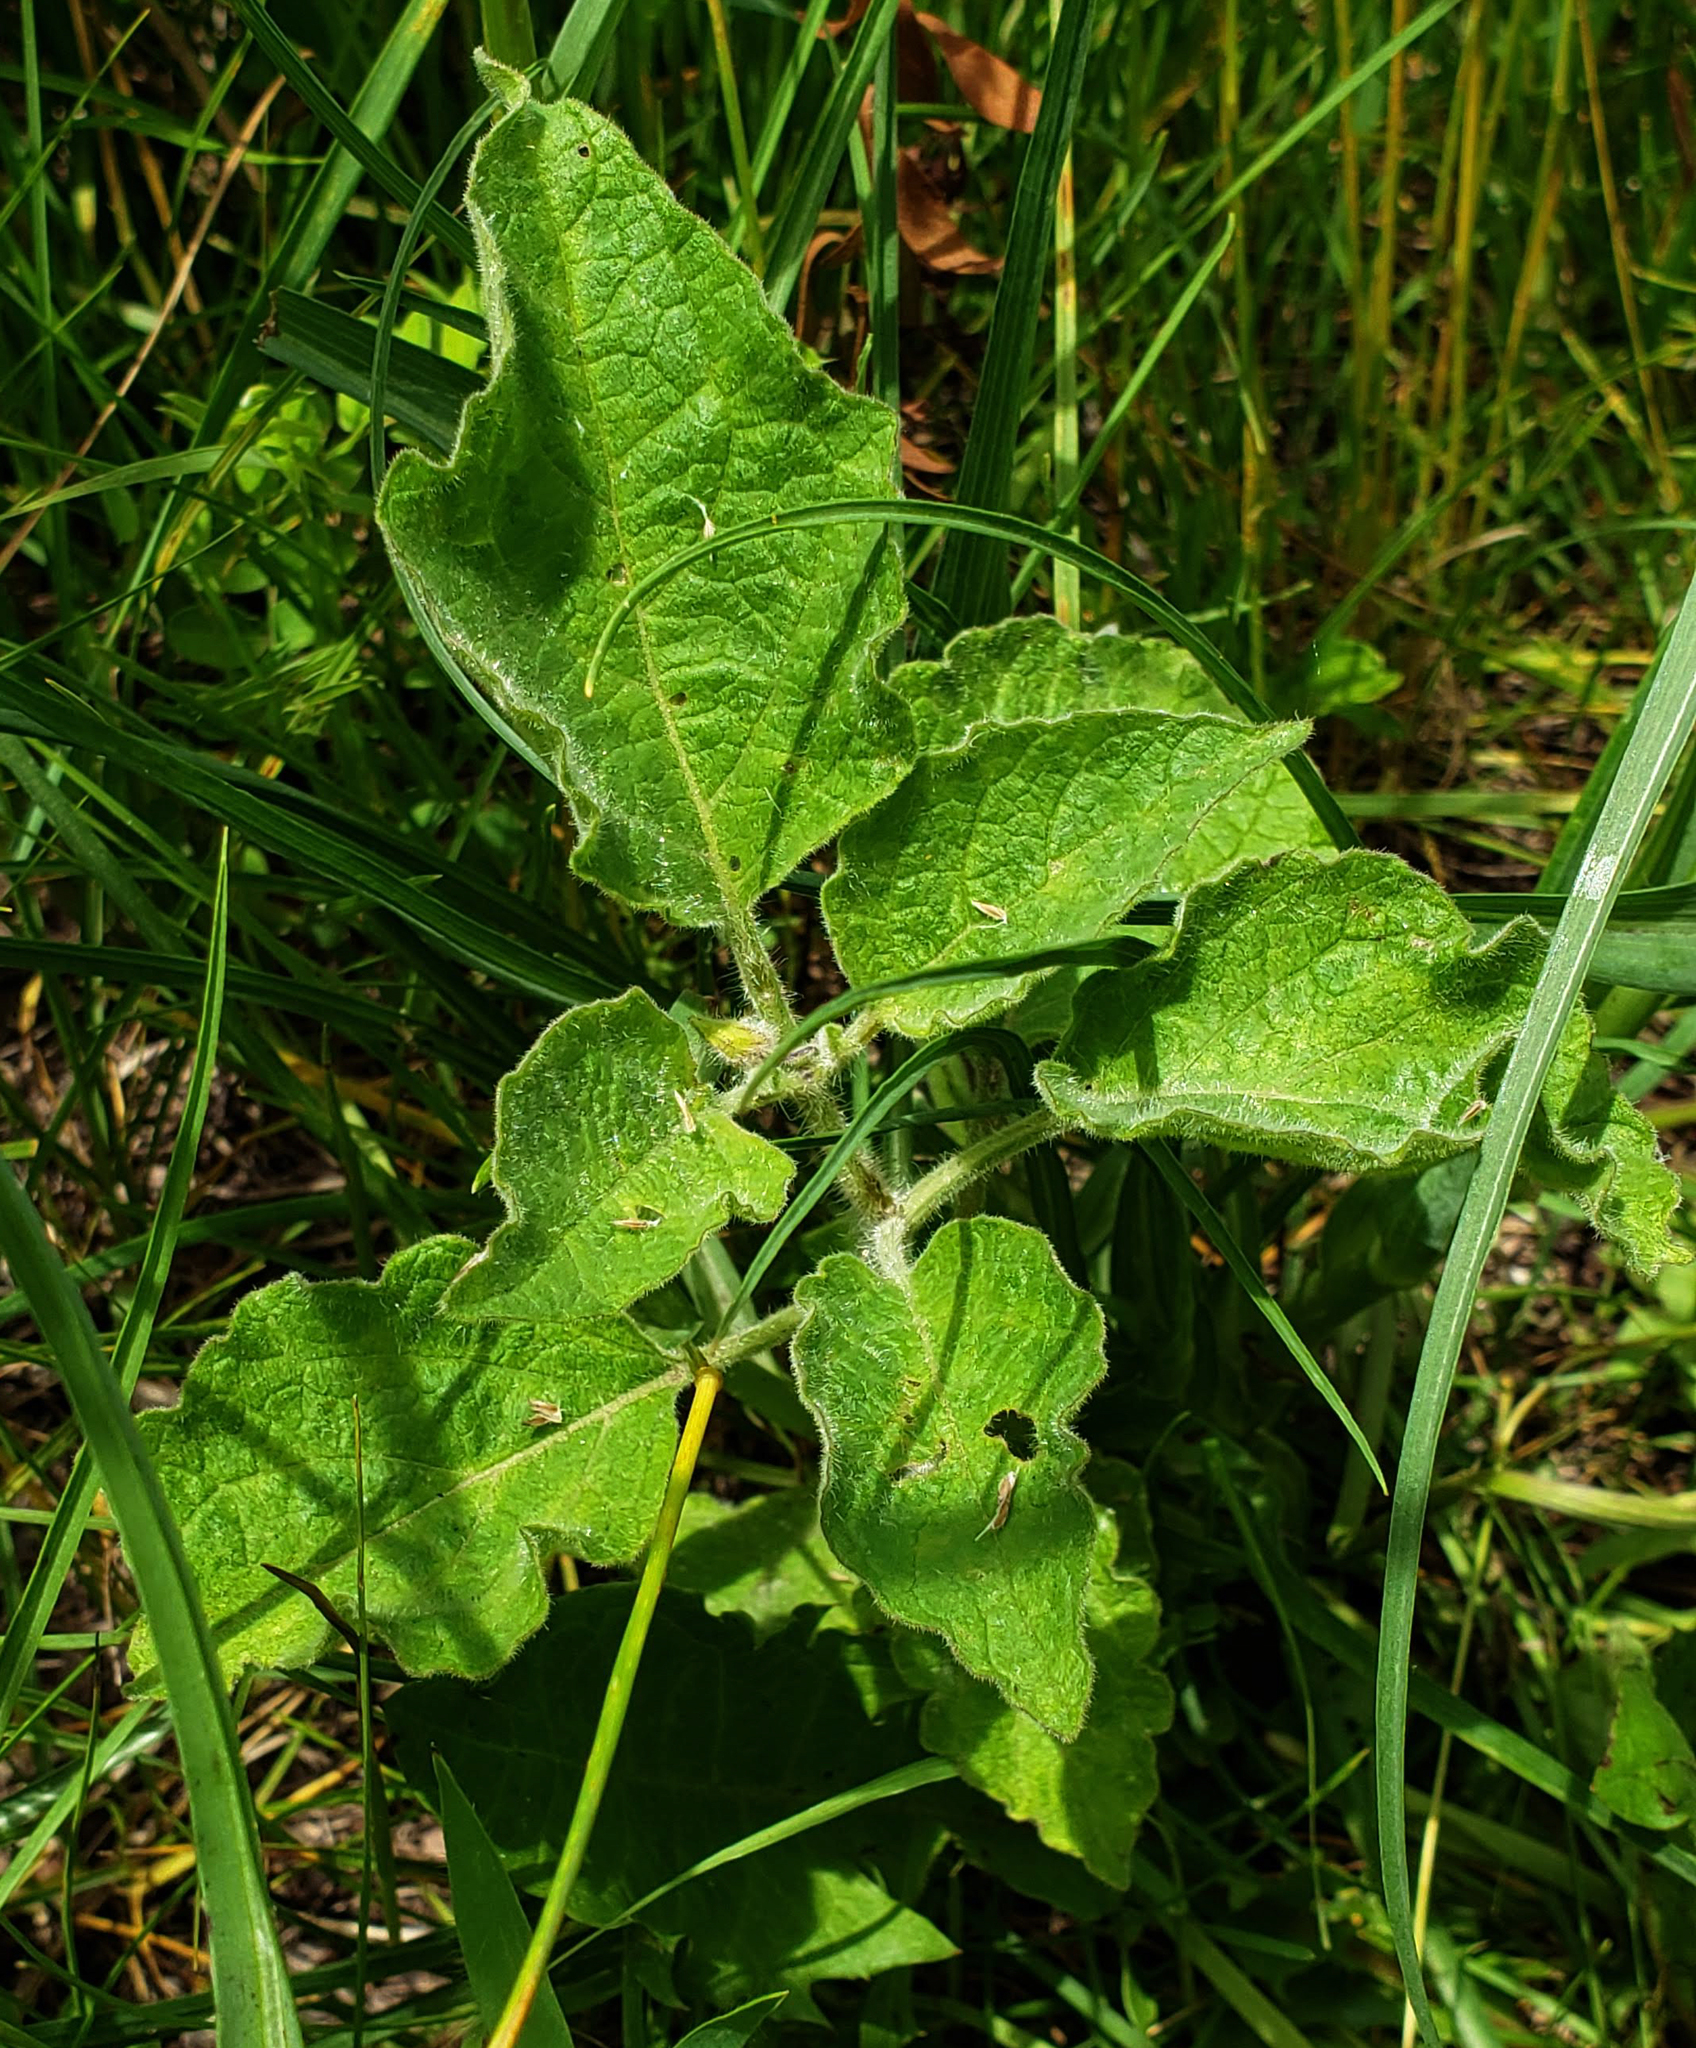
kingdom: Plantae
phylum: Tracheophyta
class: Magnoliopsida
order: Solanales
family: Solanaceae
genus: Physalis
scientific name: Physalis heterophylla
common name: Clammy ground-cherry
